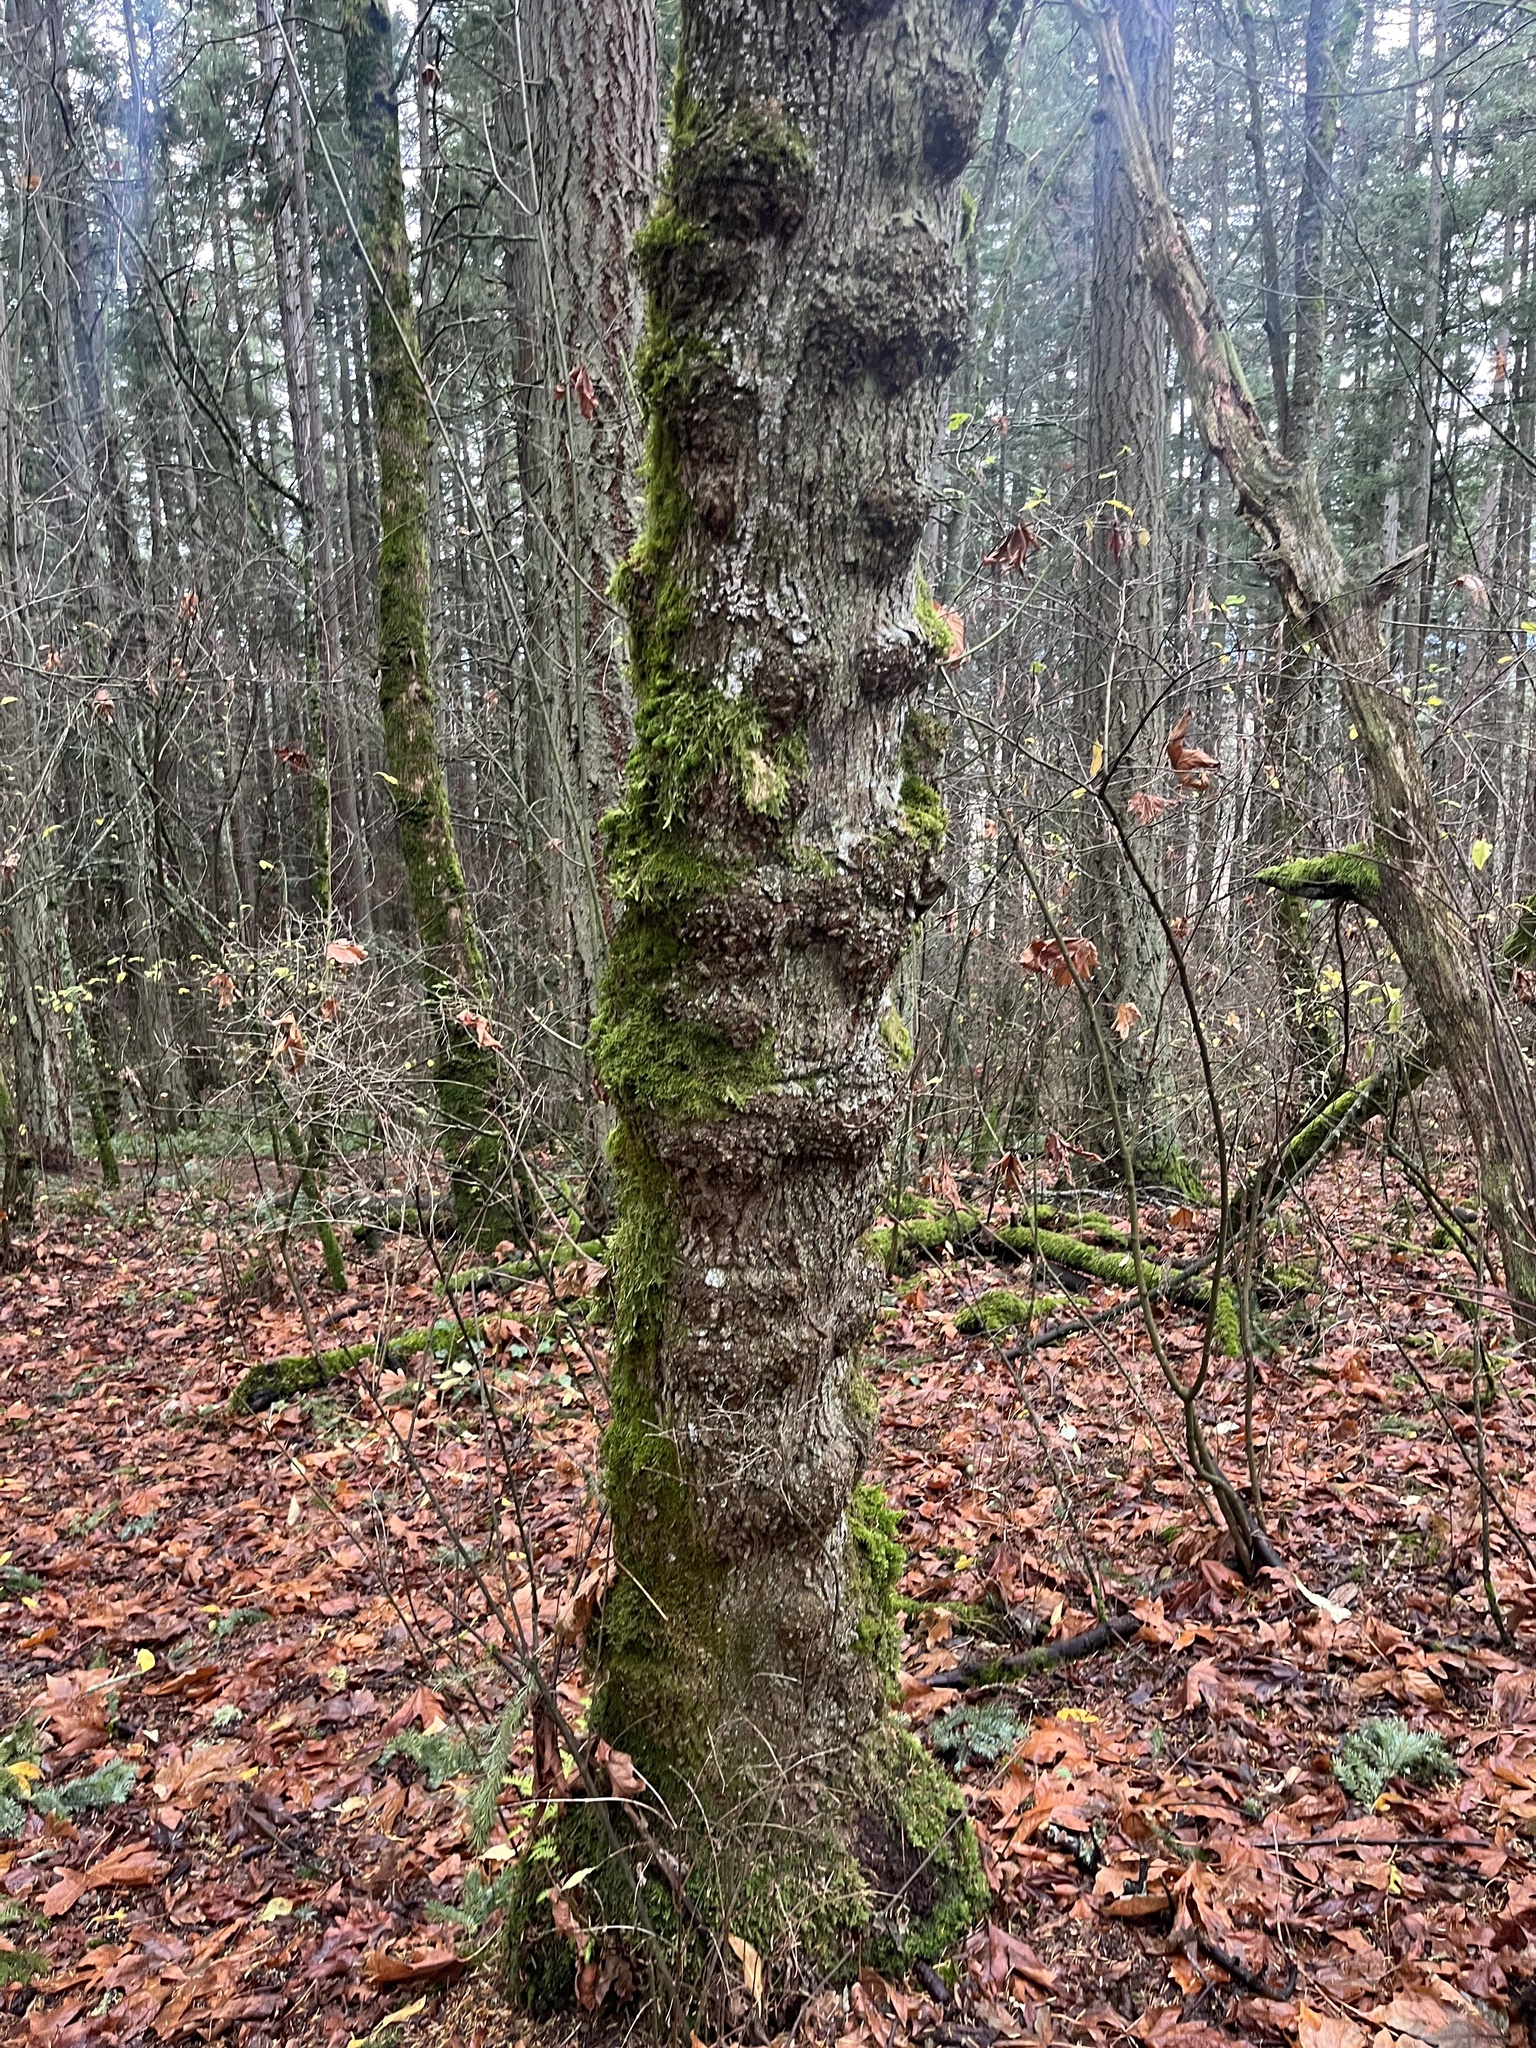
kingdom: Plantae
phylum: Tracheophyta
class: Magnoliopsida
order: Sapindales
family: Sapindaceae
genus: Acer
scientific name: Acer macrophyllum
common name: Oregon maple
